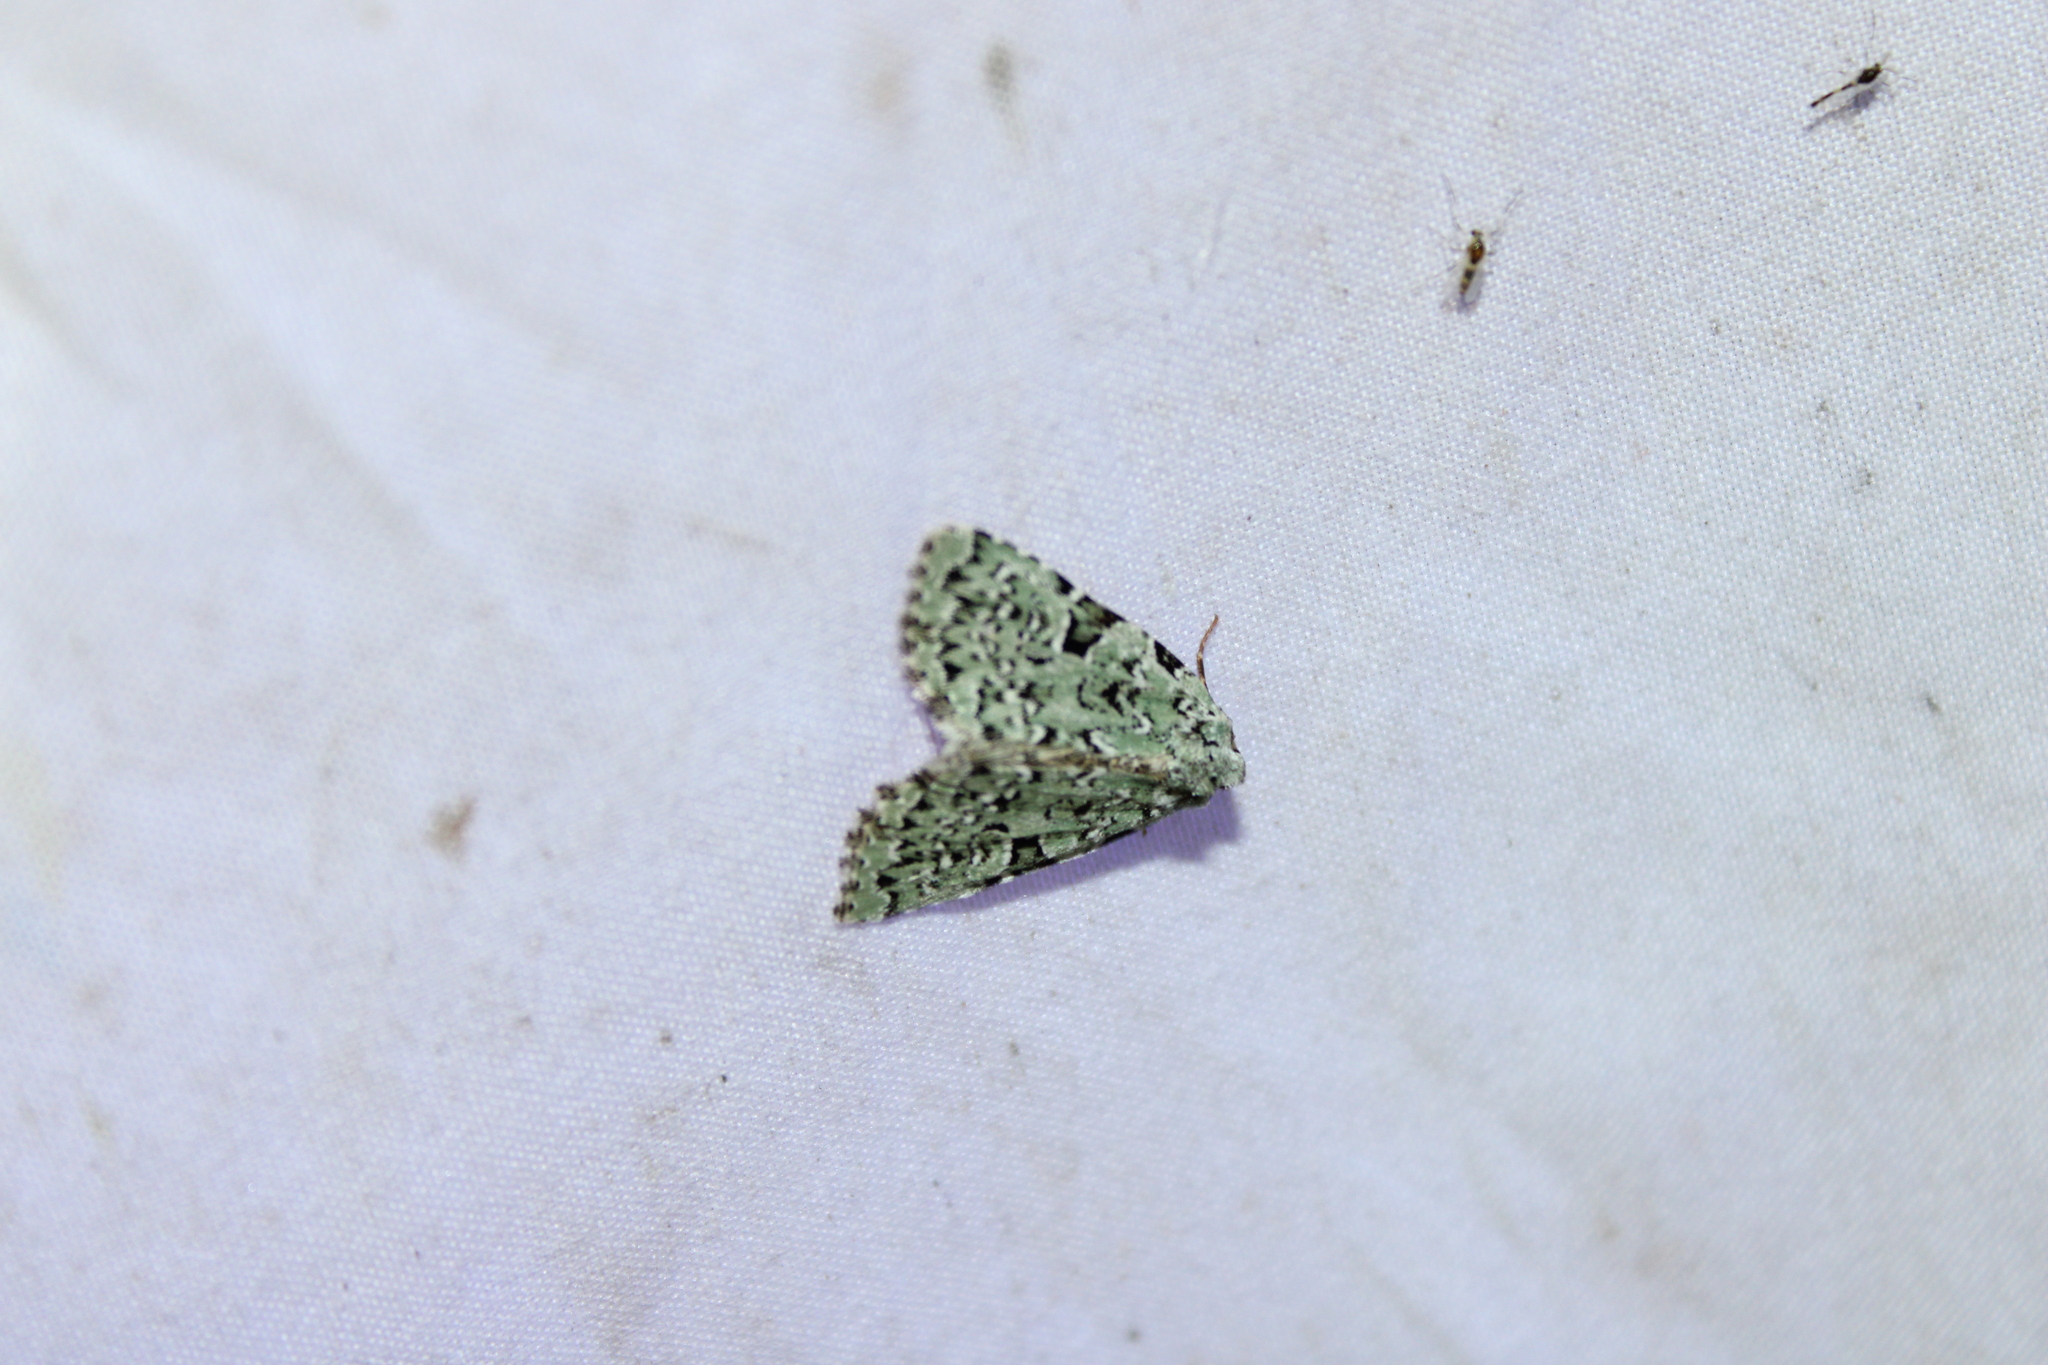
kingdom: Animalia
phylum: Arthropoda
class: Insecta
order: Lepidoptera
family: Noctuidae
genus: Leuconycta
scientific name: Leuconycta diphteroides
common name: Green leuconycta moth
